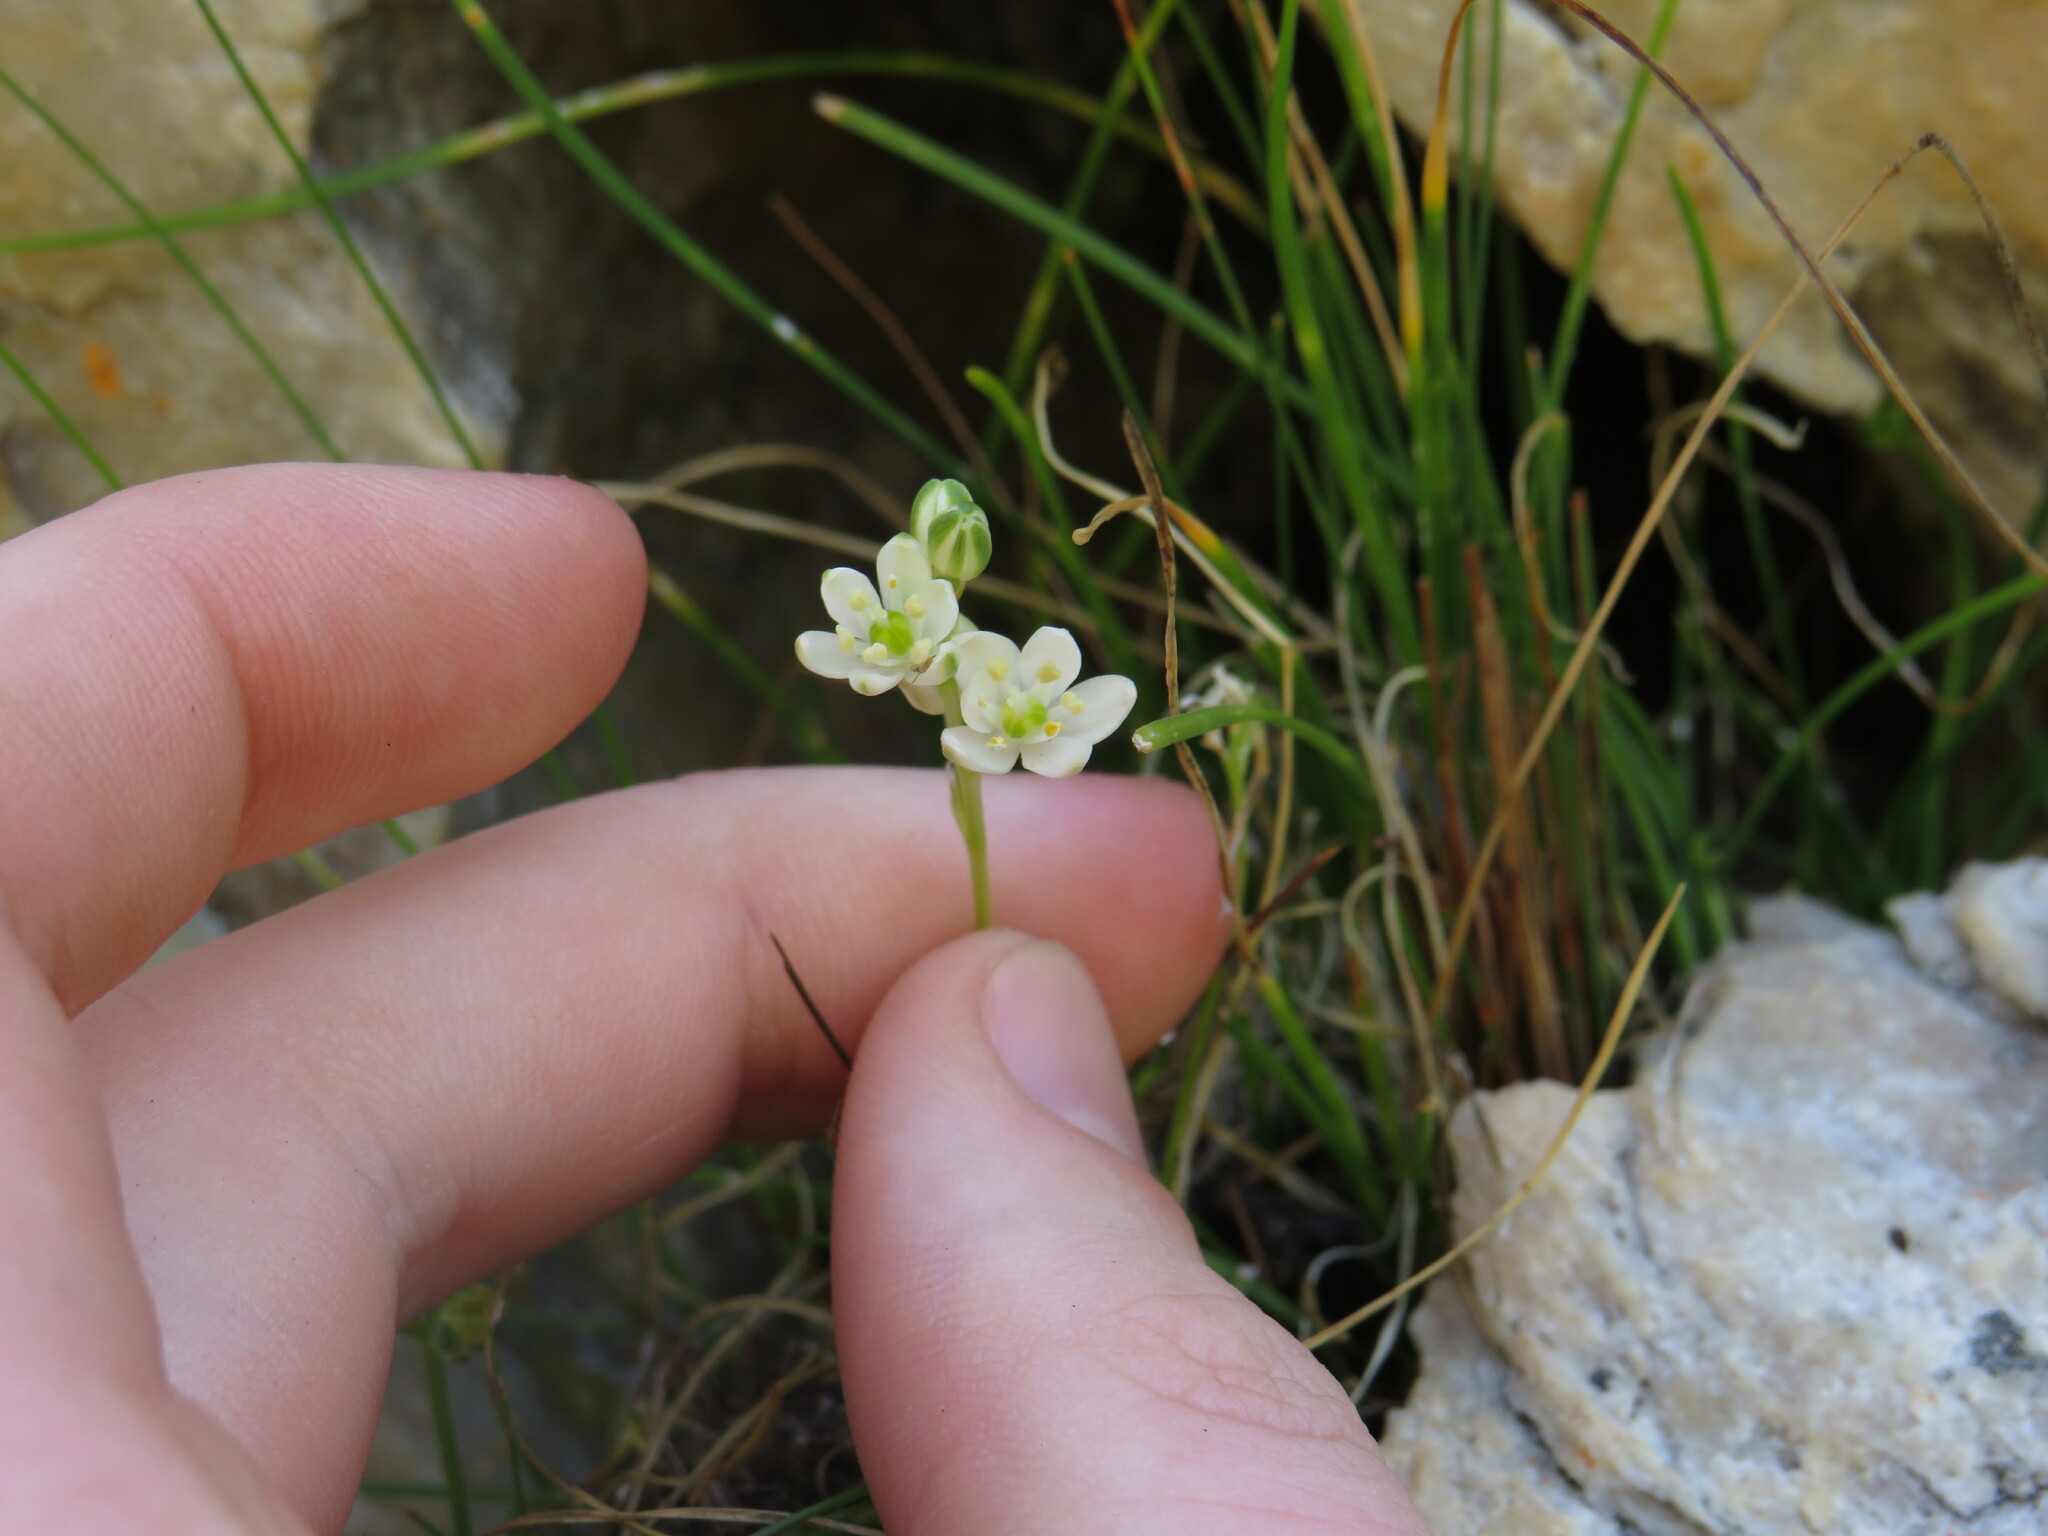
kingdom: Plantae
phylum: Tracheophyta
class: Liliopsida
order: Asparagales
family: Asparagaceae
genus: Ornithogalum
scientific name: Ornithogalum niveum
